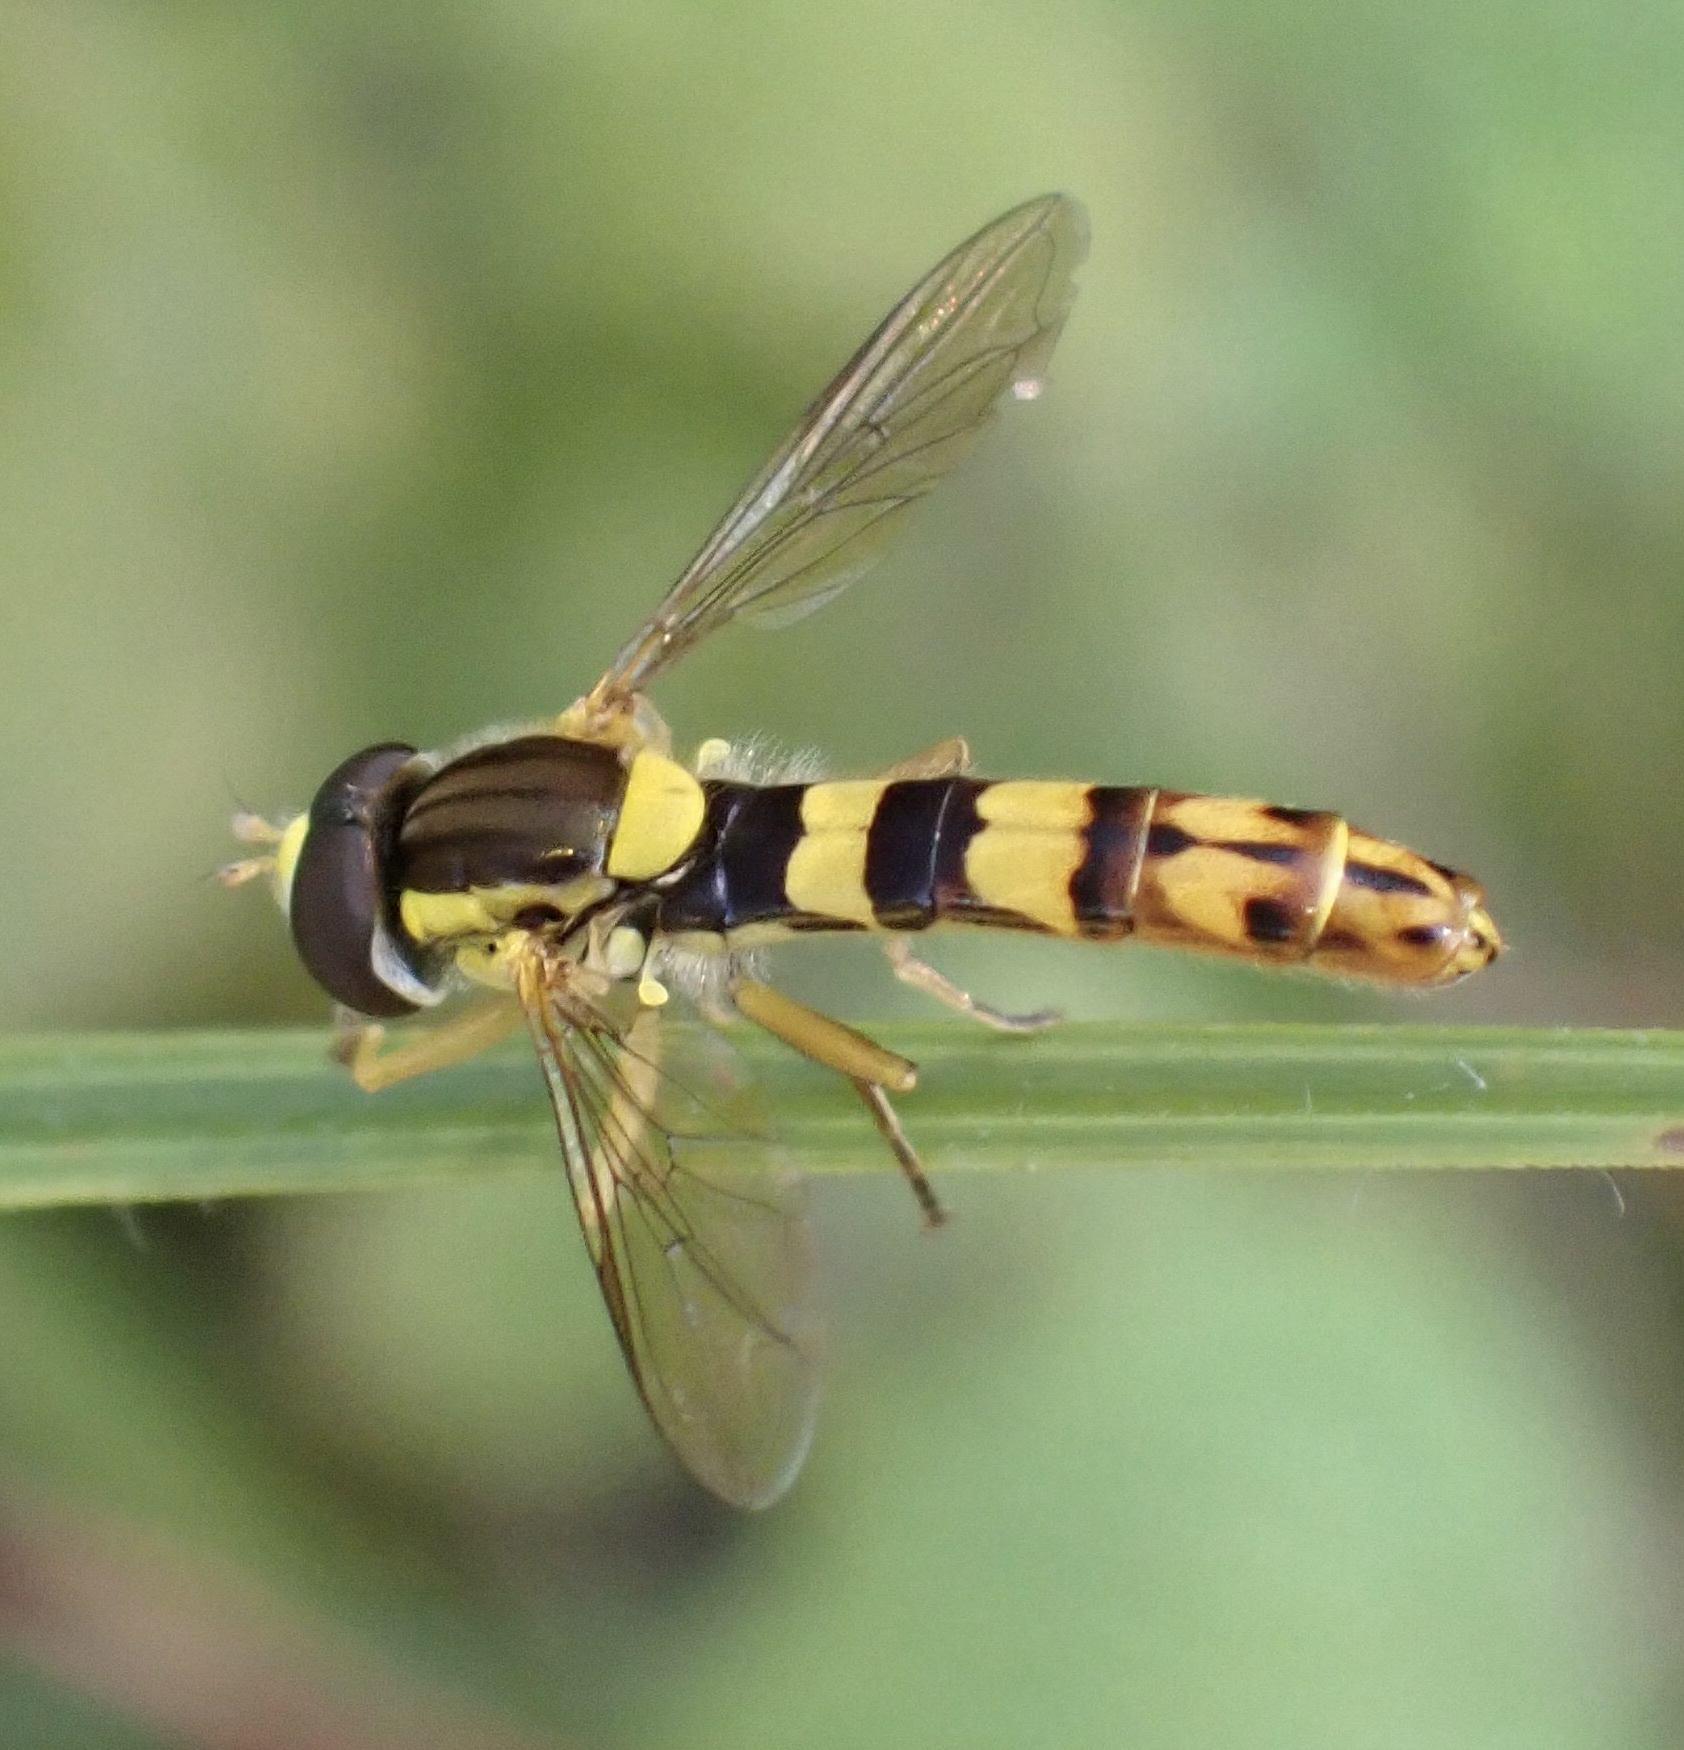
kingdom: Animalia
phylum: Arthropoda
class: Insecta
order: Diptera
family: Syrphidae
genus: Sphaerophoria
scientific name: Sphaerophoria scripta
